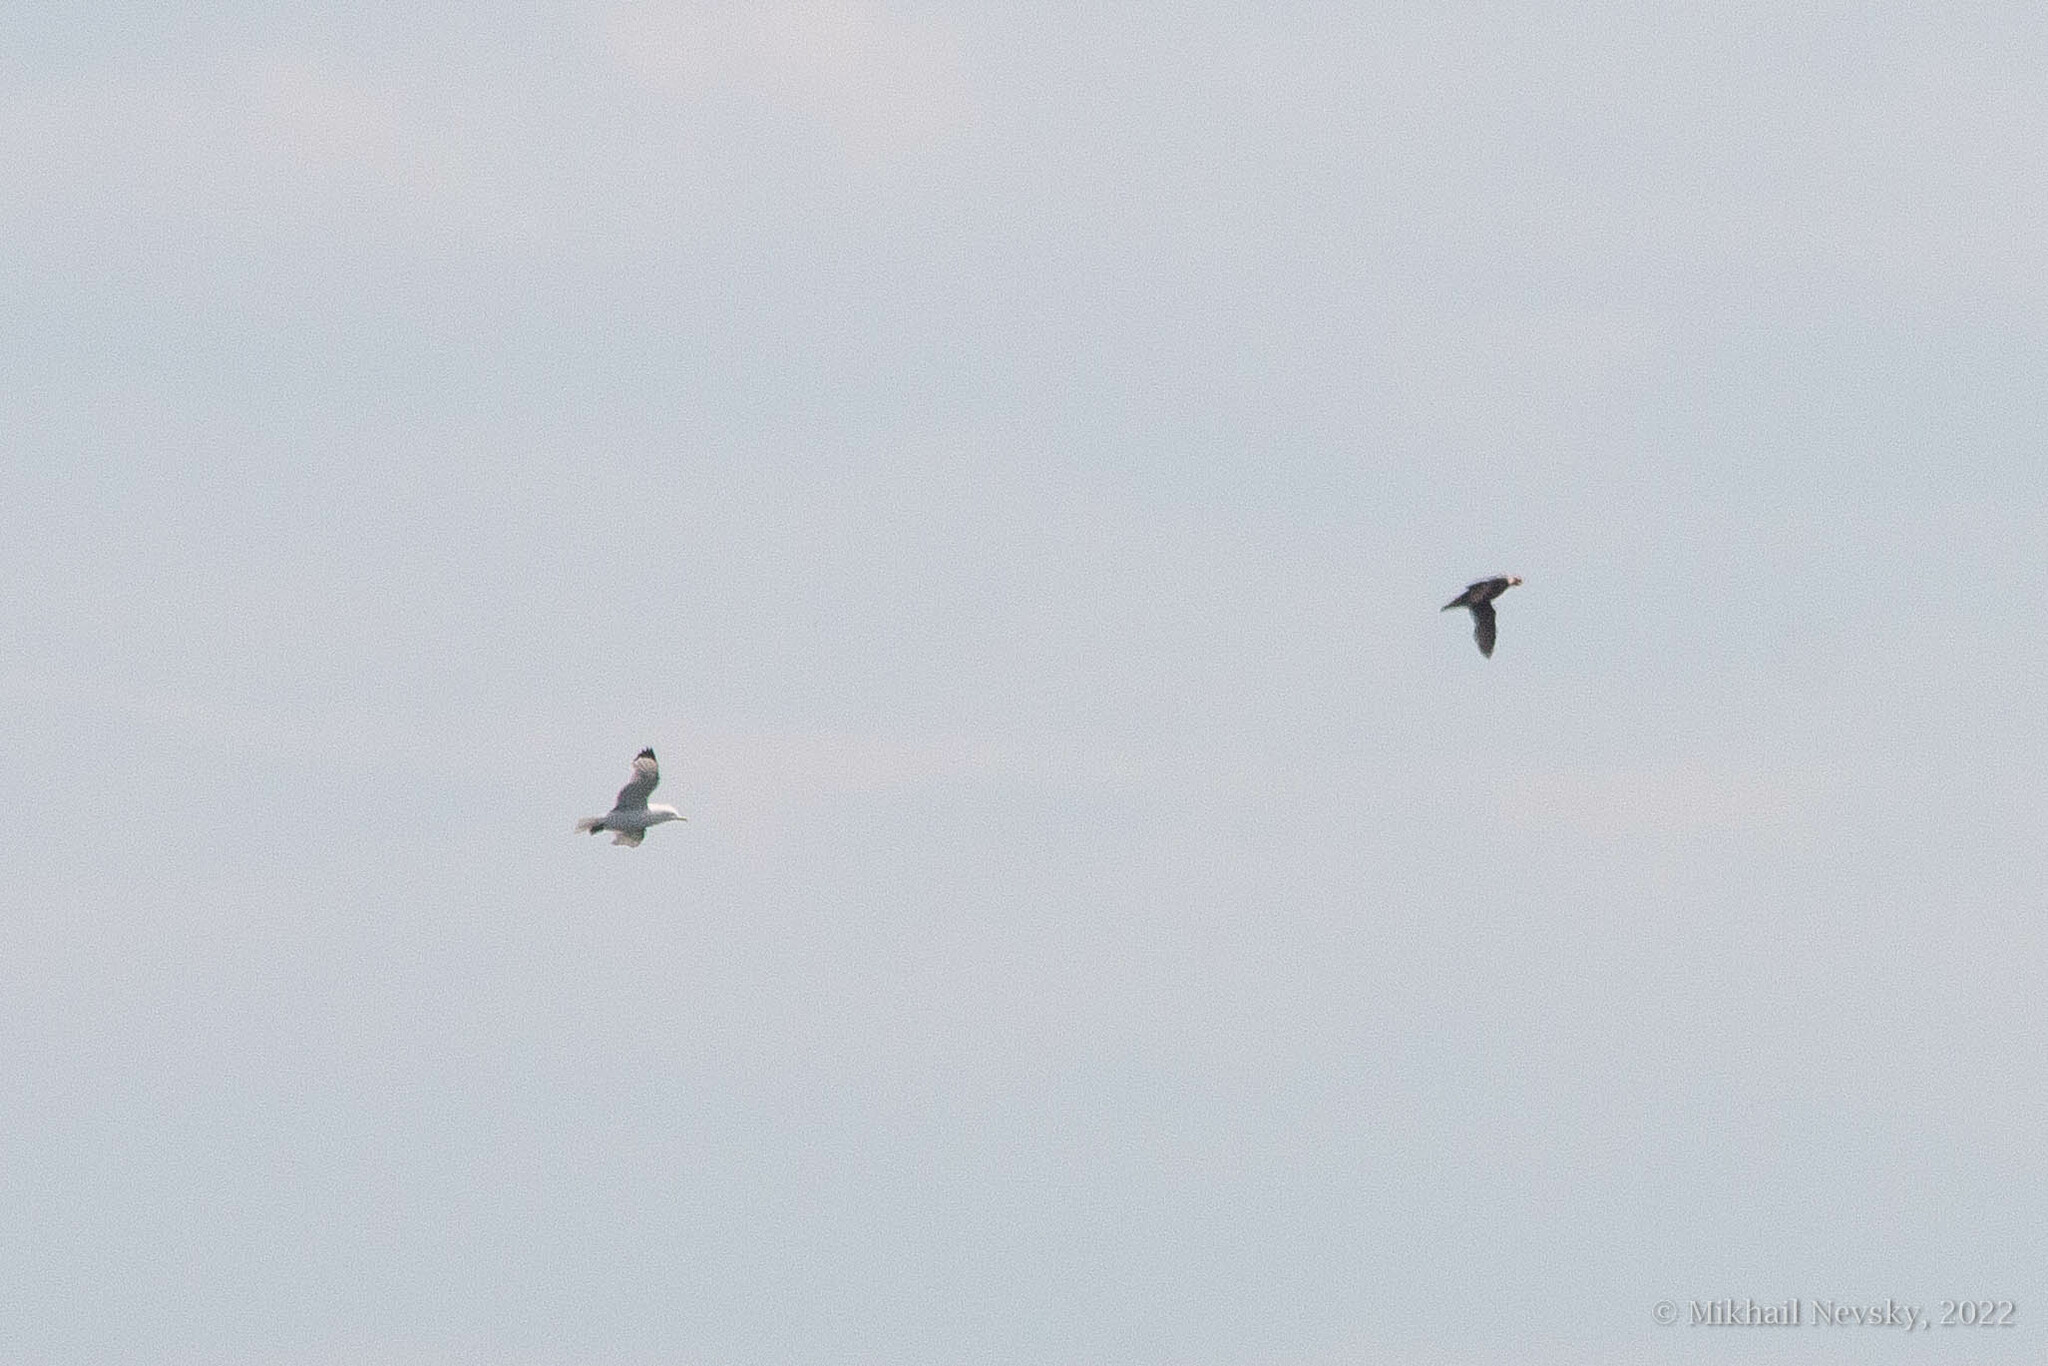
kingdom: Animalia
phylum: Chordata
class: Aves
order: Charadriiformes
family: Laridae
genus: Rissa
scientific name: Rissa tridactyla
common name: Black-legged kittiwake
